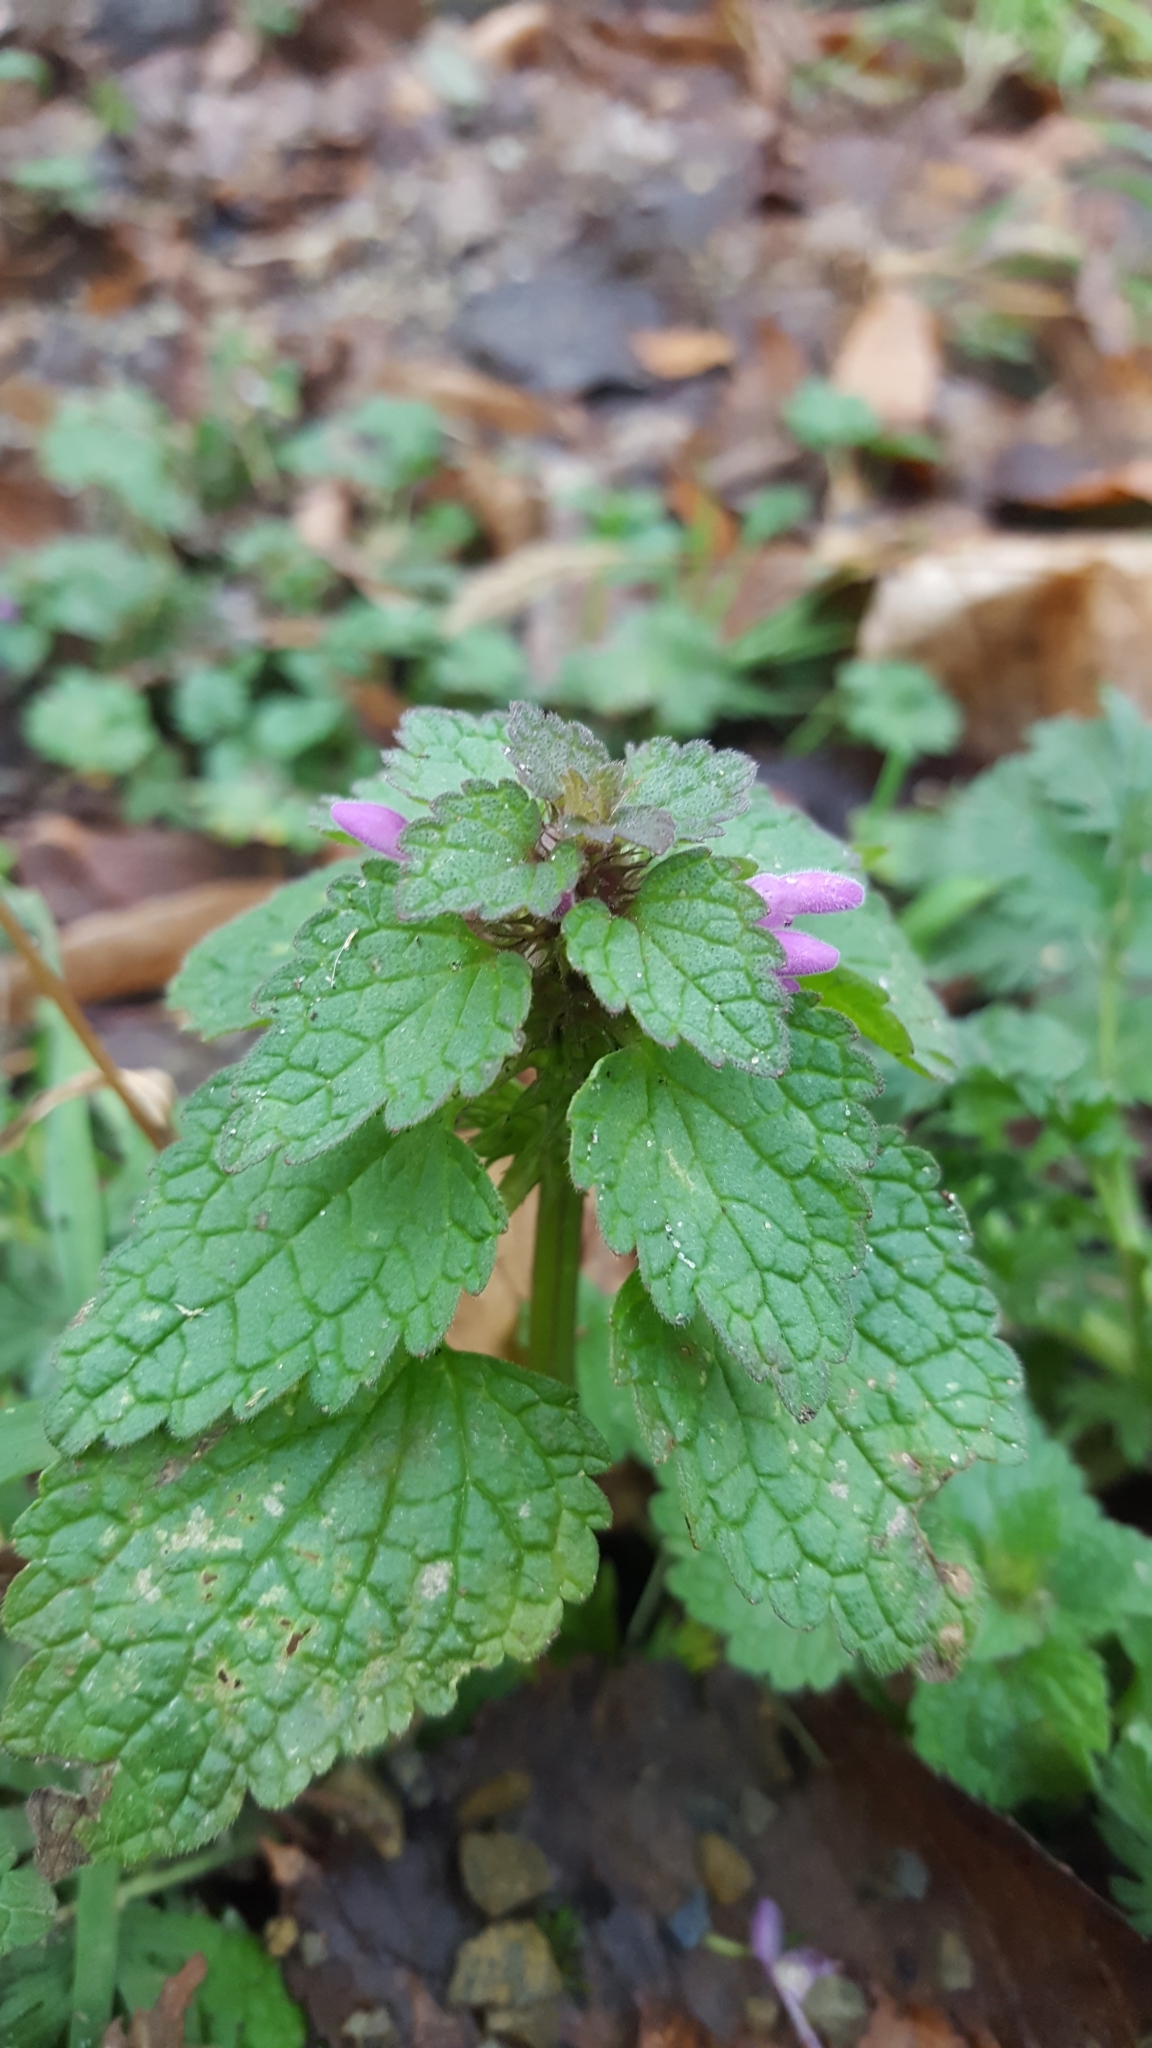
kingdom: Plantae
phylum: Tracheophyta
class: Magnoliopsida
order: Lamiales
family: Lamiaceae
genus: Lamium
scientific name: Lamium purpureum
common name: Red dead-nettle
